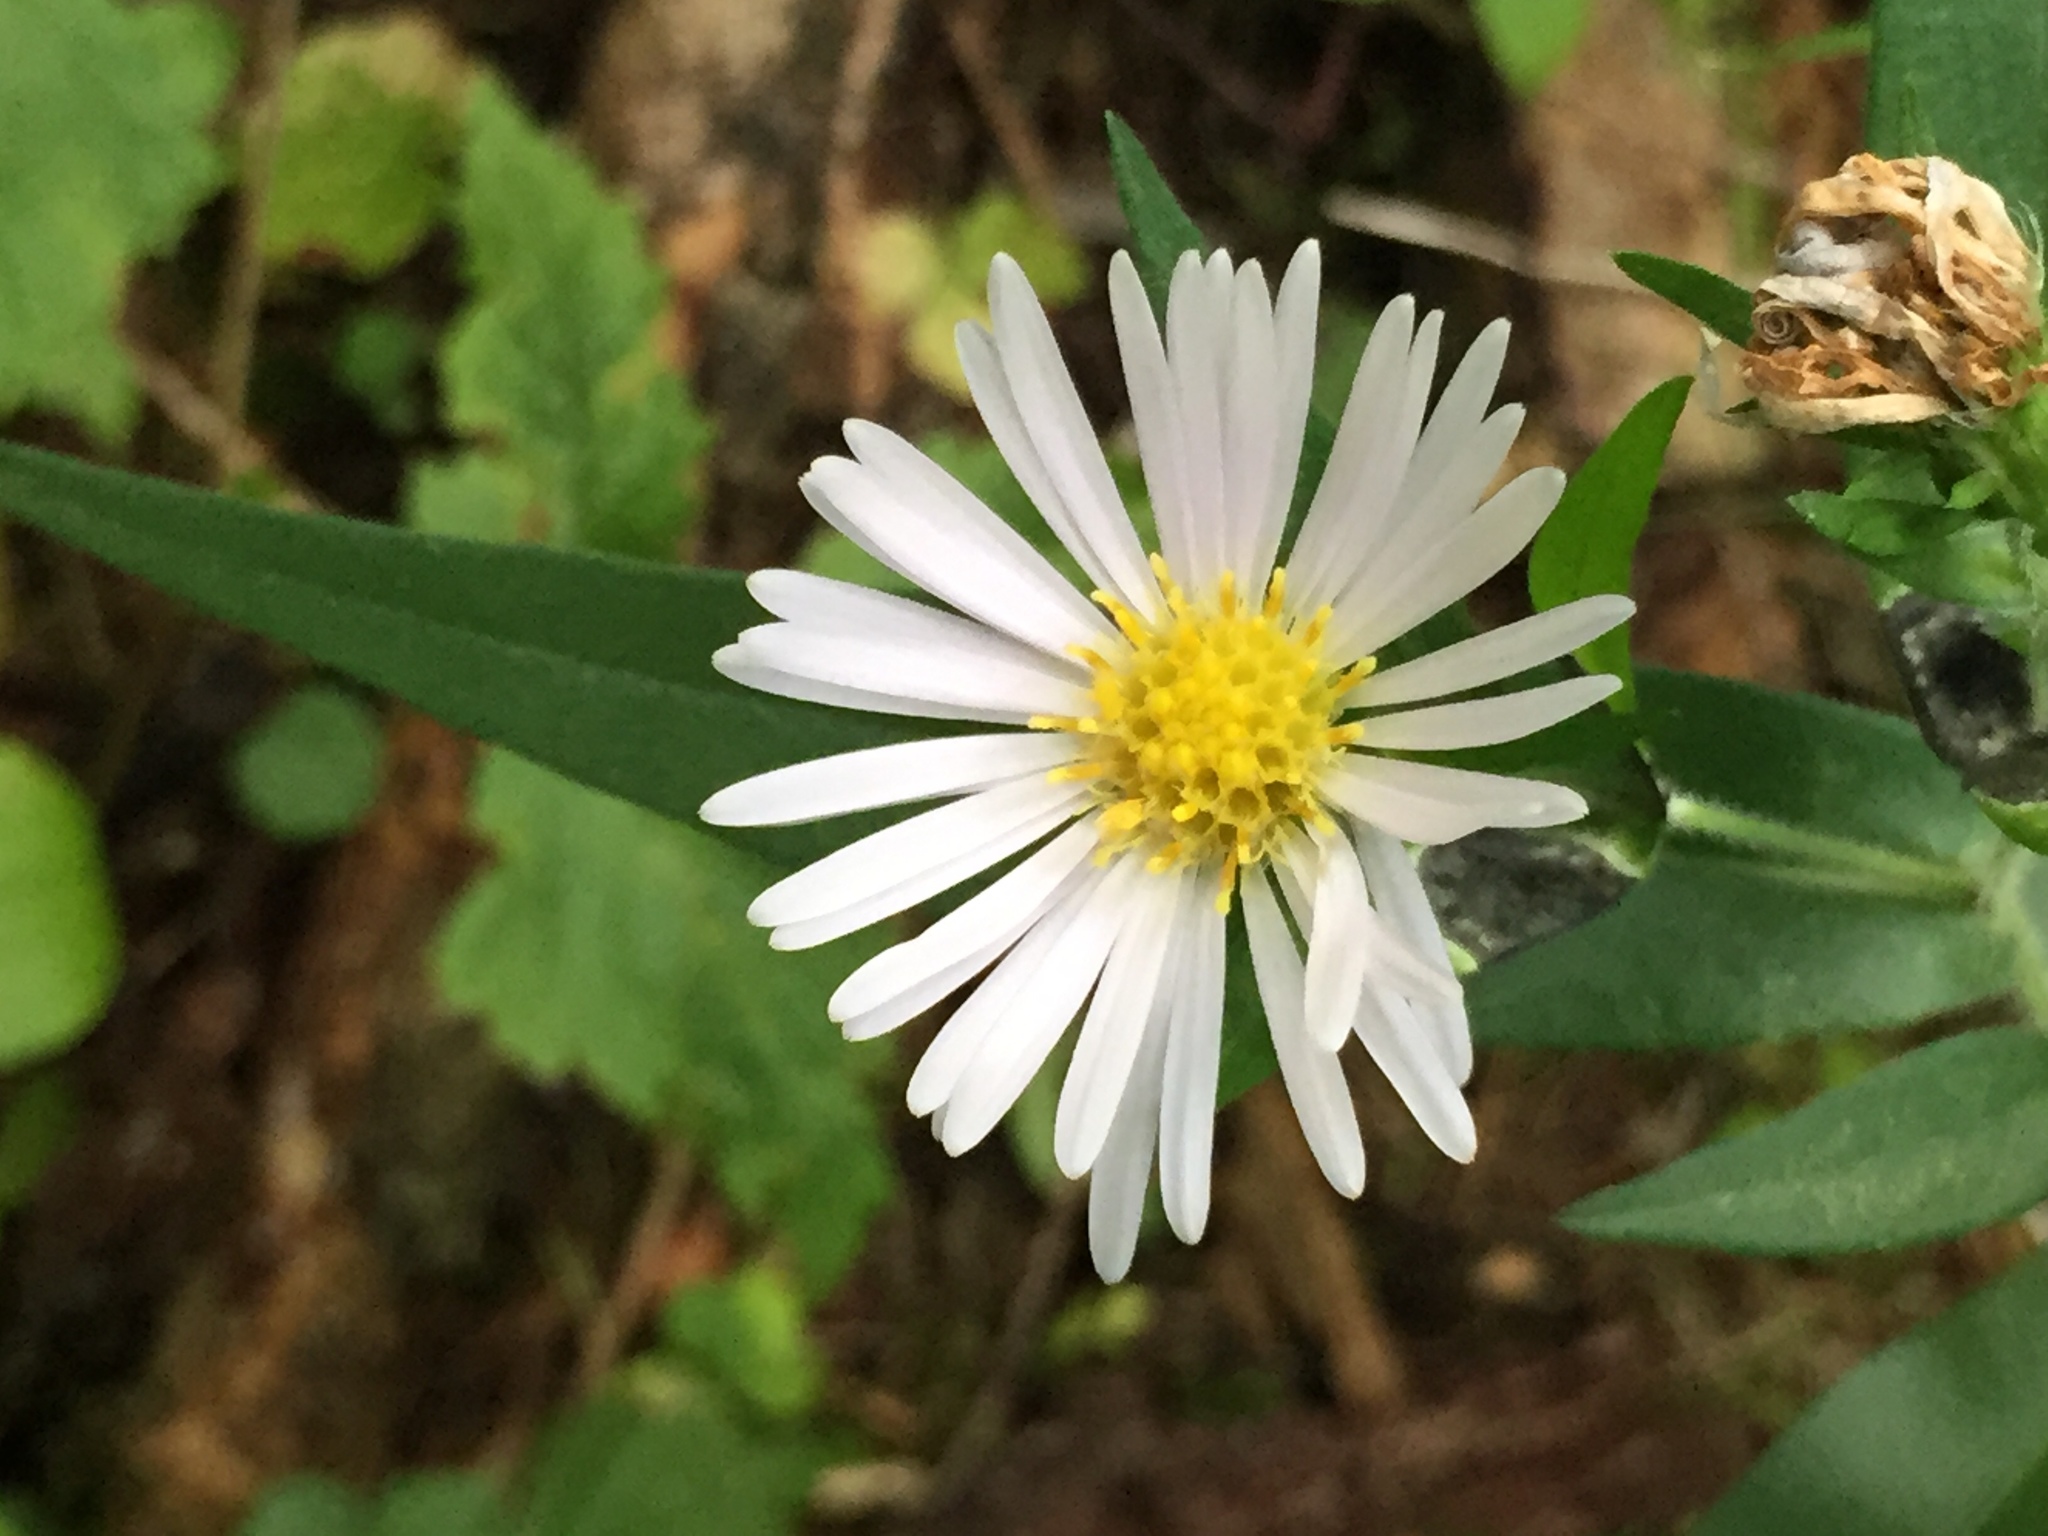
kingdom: Plantae
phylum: Tracheophyta
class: Magnoliopsida
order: Asterales
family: Asteraceae
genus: Symphyotrichum
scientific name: Symphyotrichum lanceolatum
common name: Panicled aster
